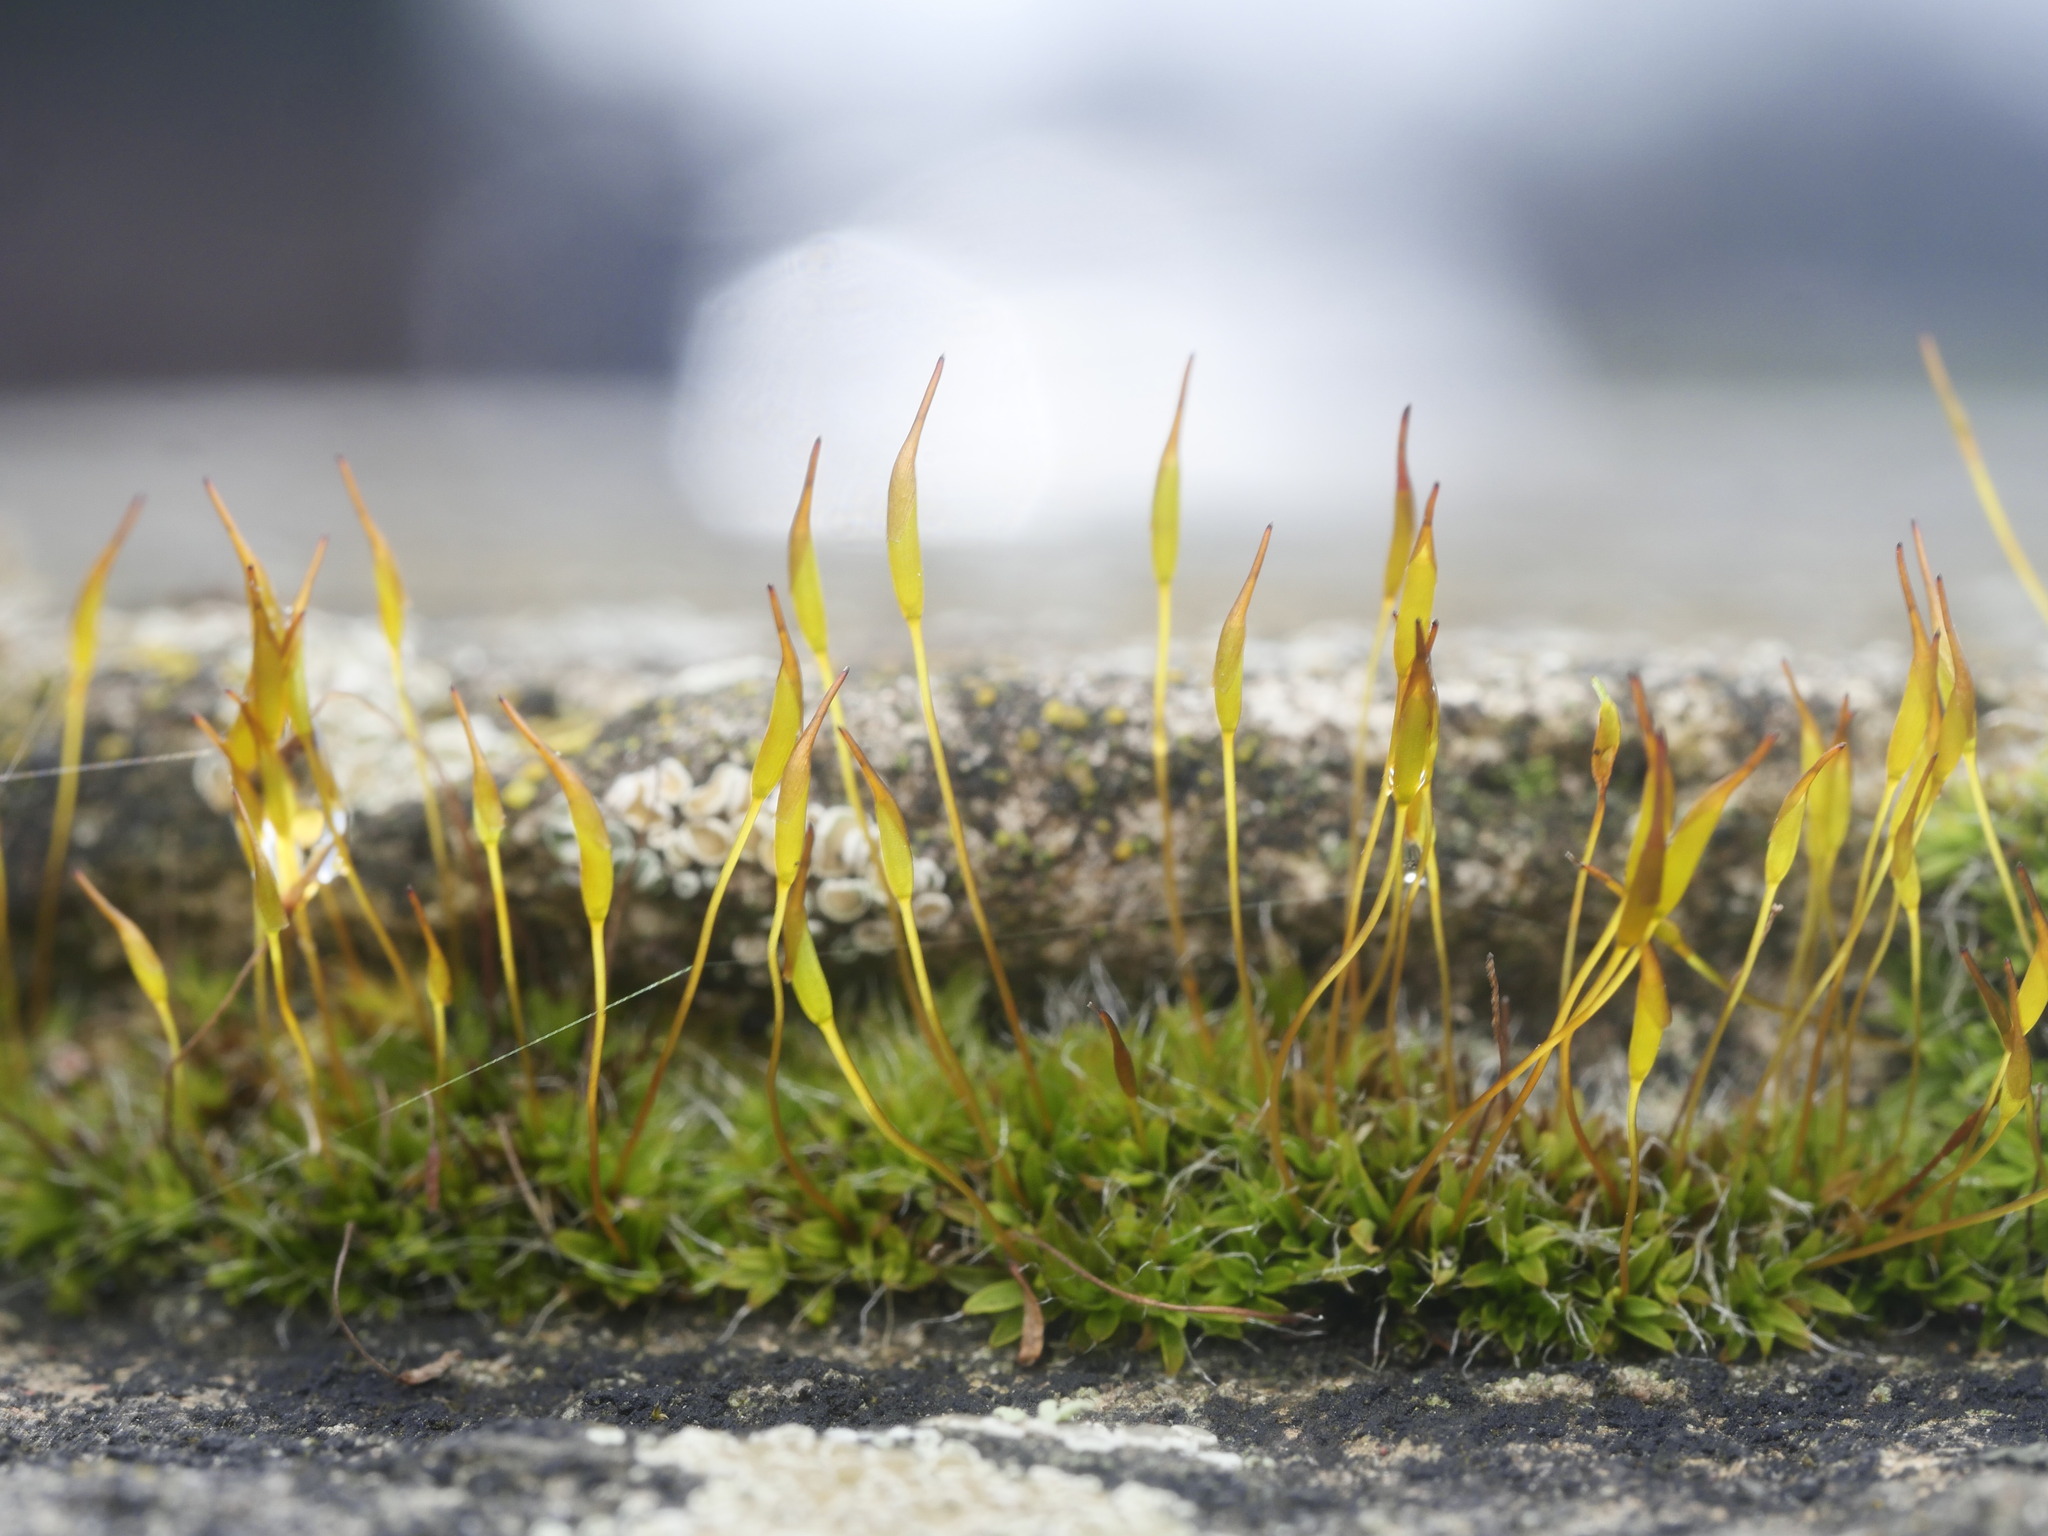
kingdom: Plantae
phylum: Bryophyta
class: Bryopsida
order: Pottiales
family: Pottiaceae
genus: Tortula
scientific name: Tortula muralis
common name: Wall screw-moss
